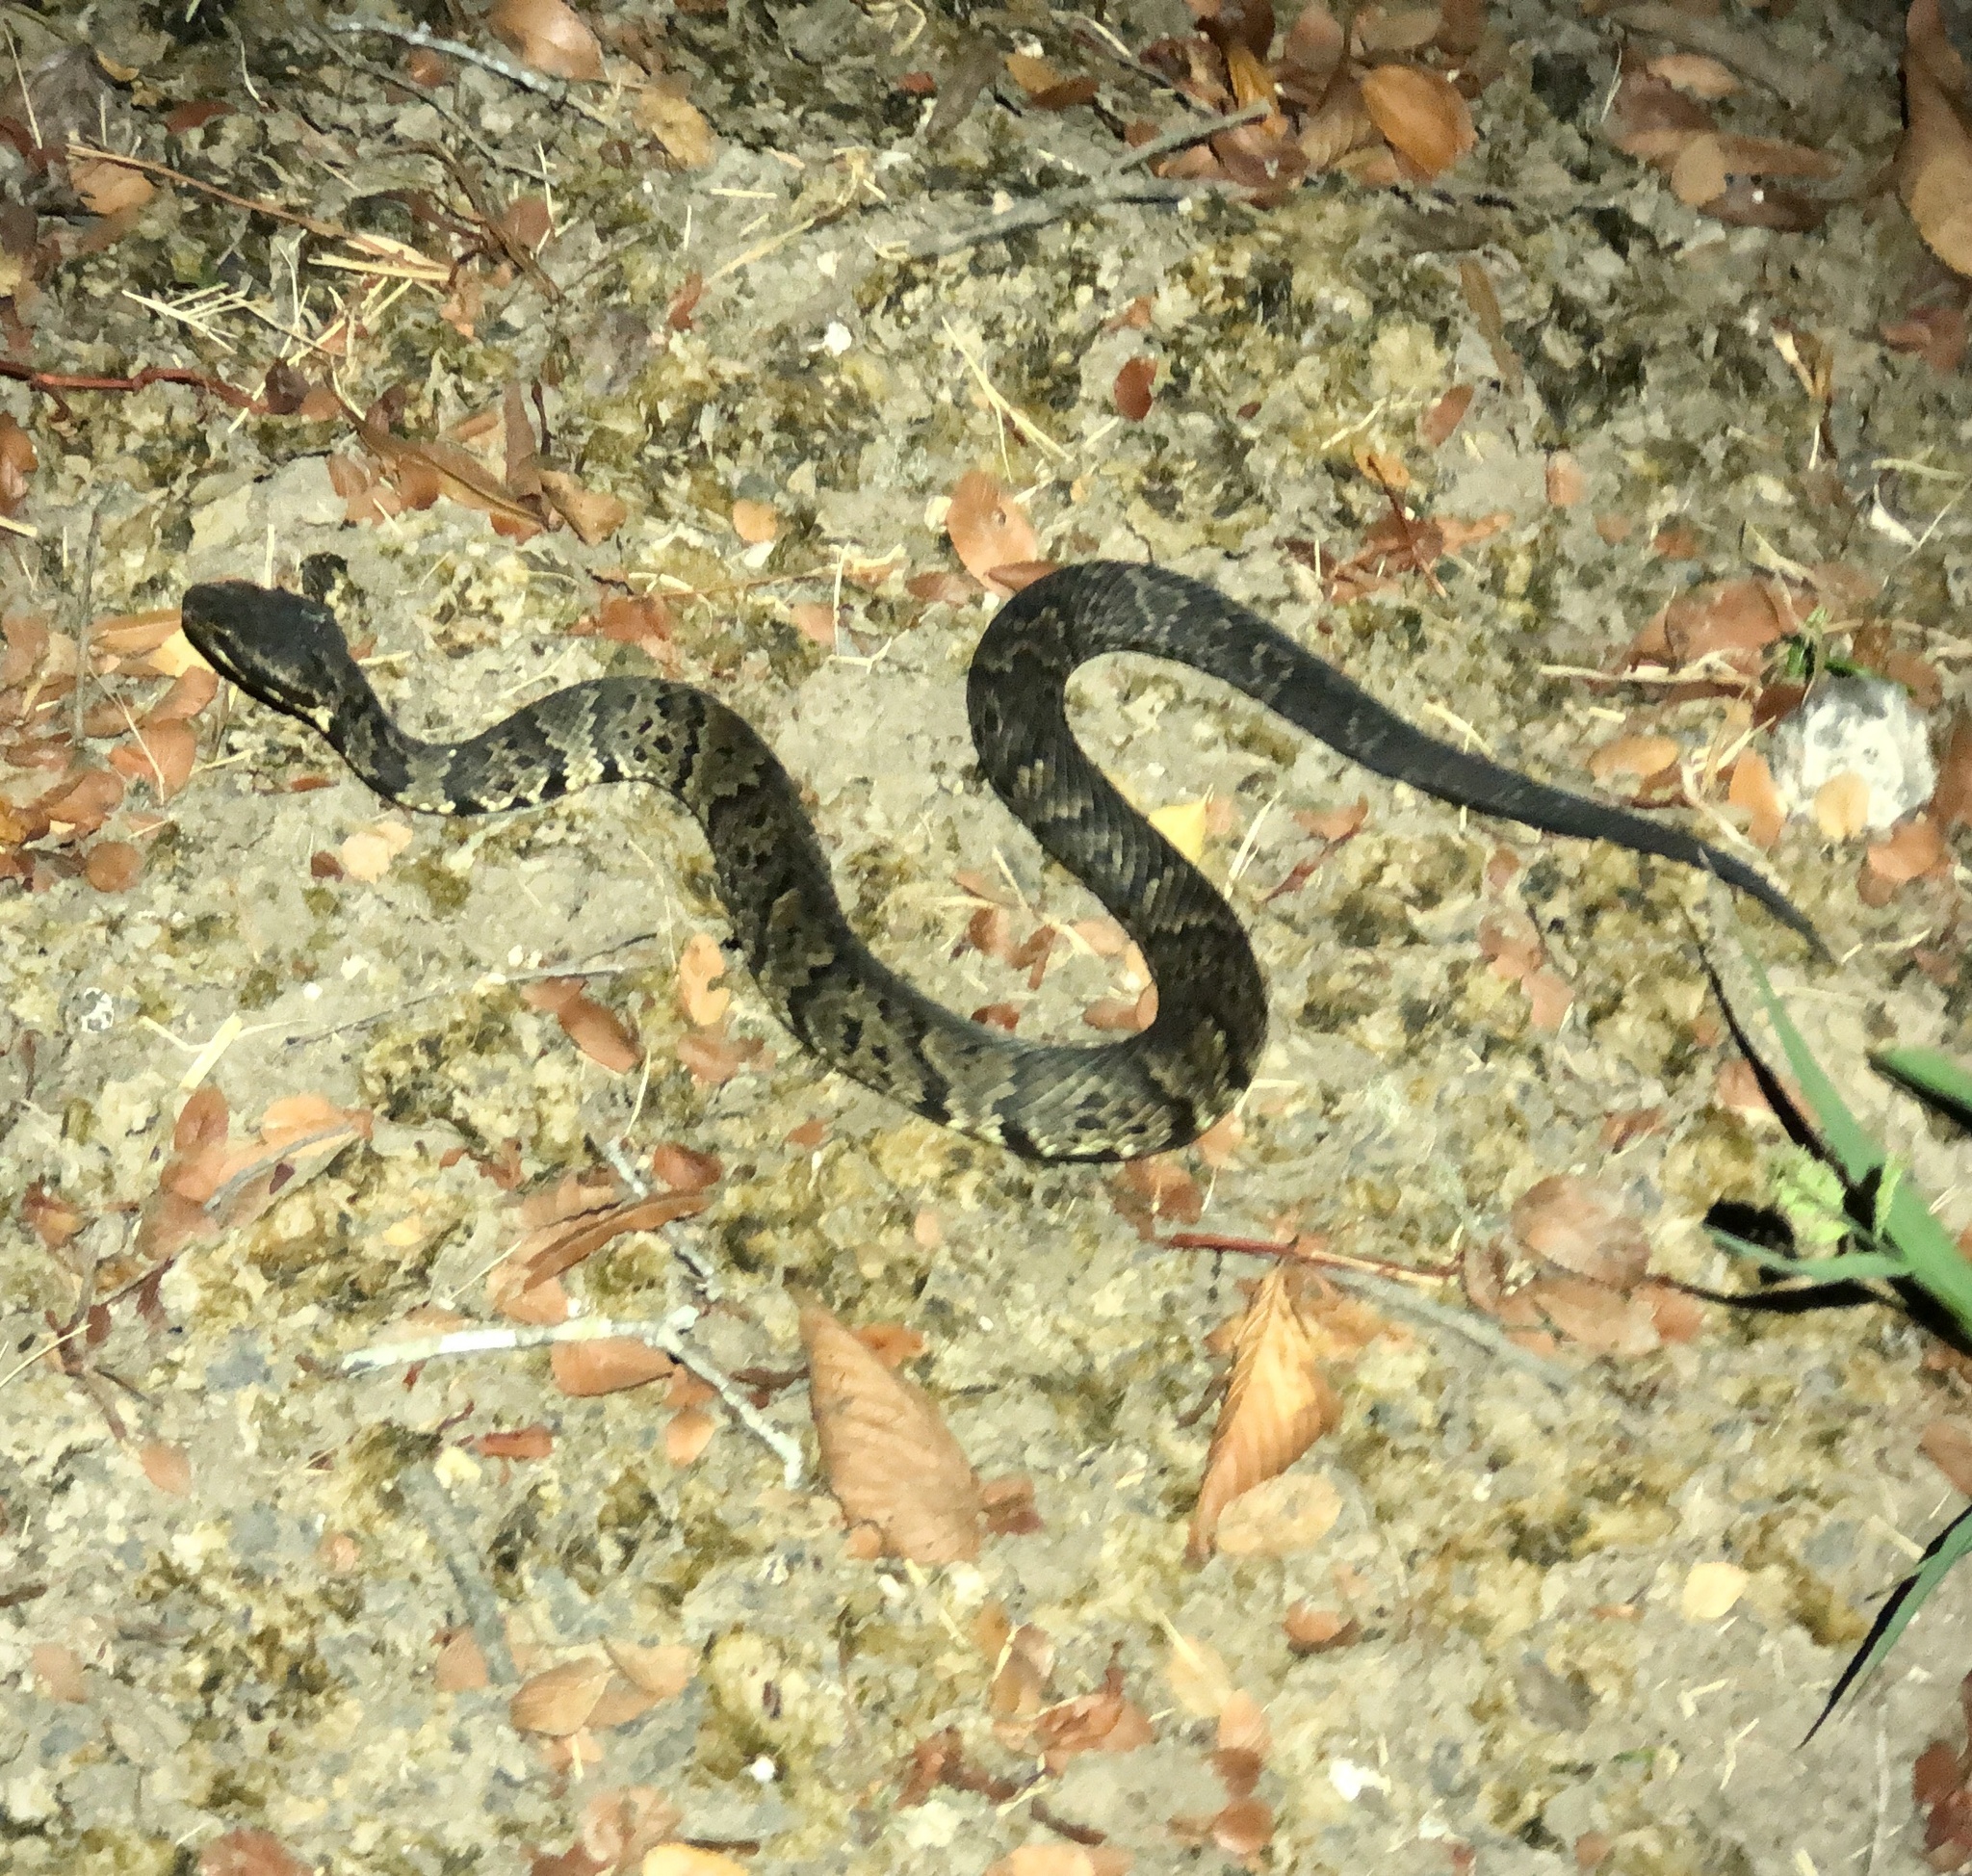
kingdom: Animalia
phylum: Chordata
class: Squamata
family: Viperidae
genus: Agkistrodon
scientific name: Agkistrodon piscivorus
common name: Cottonmouth
